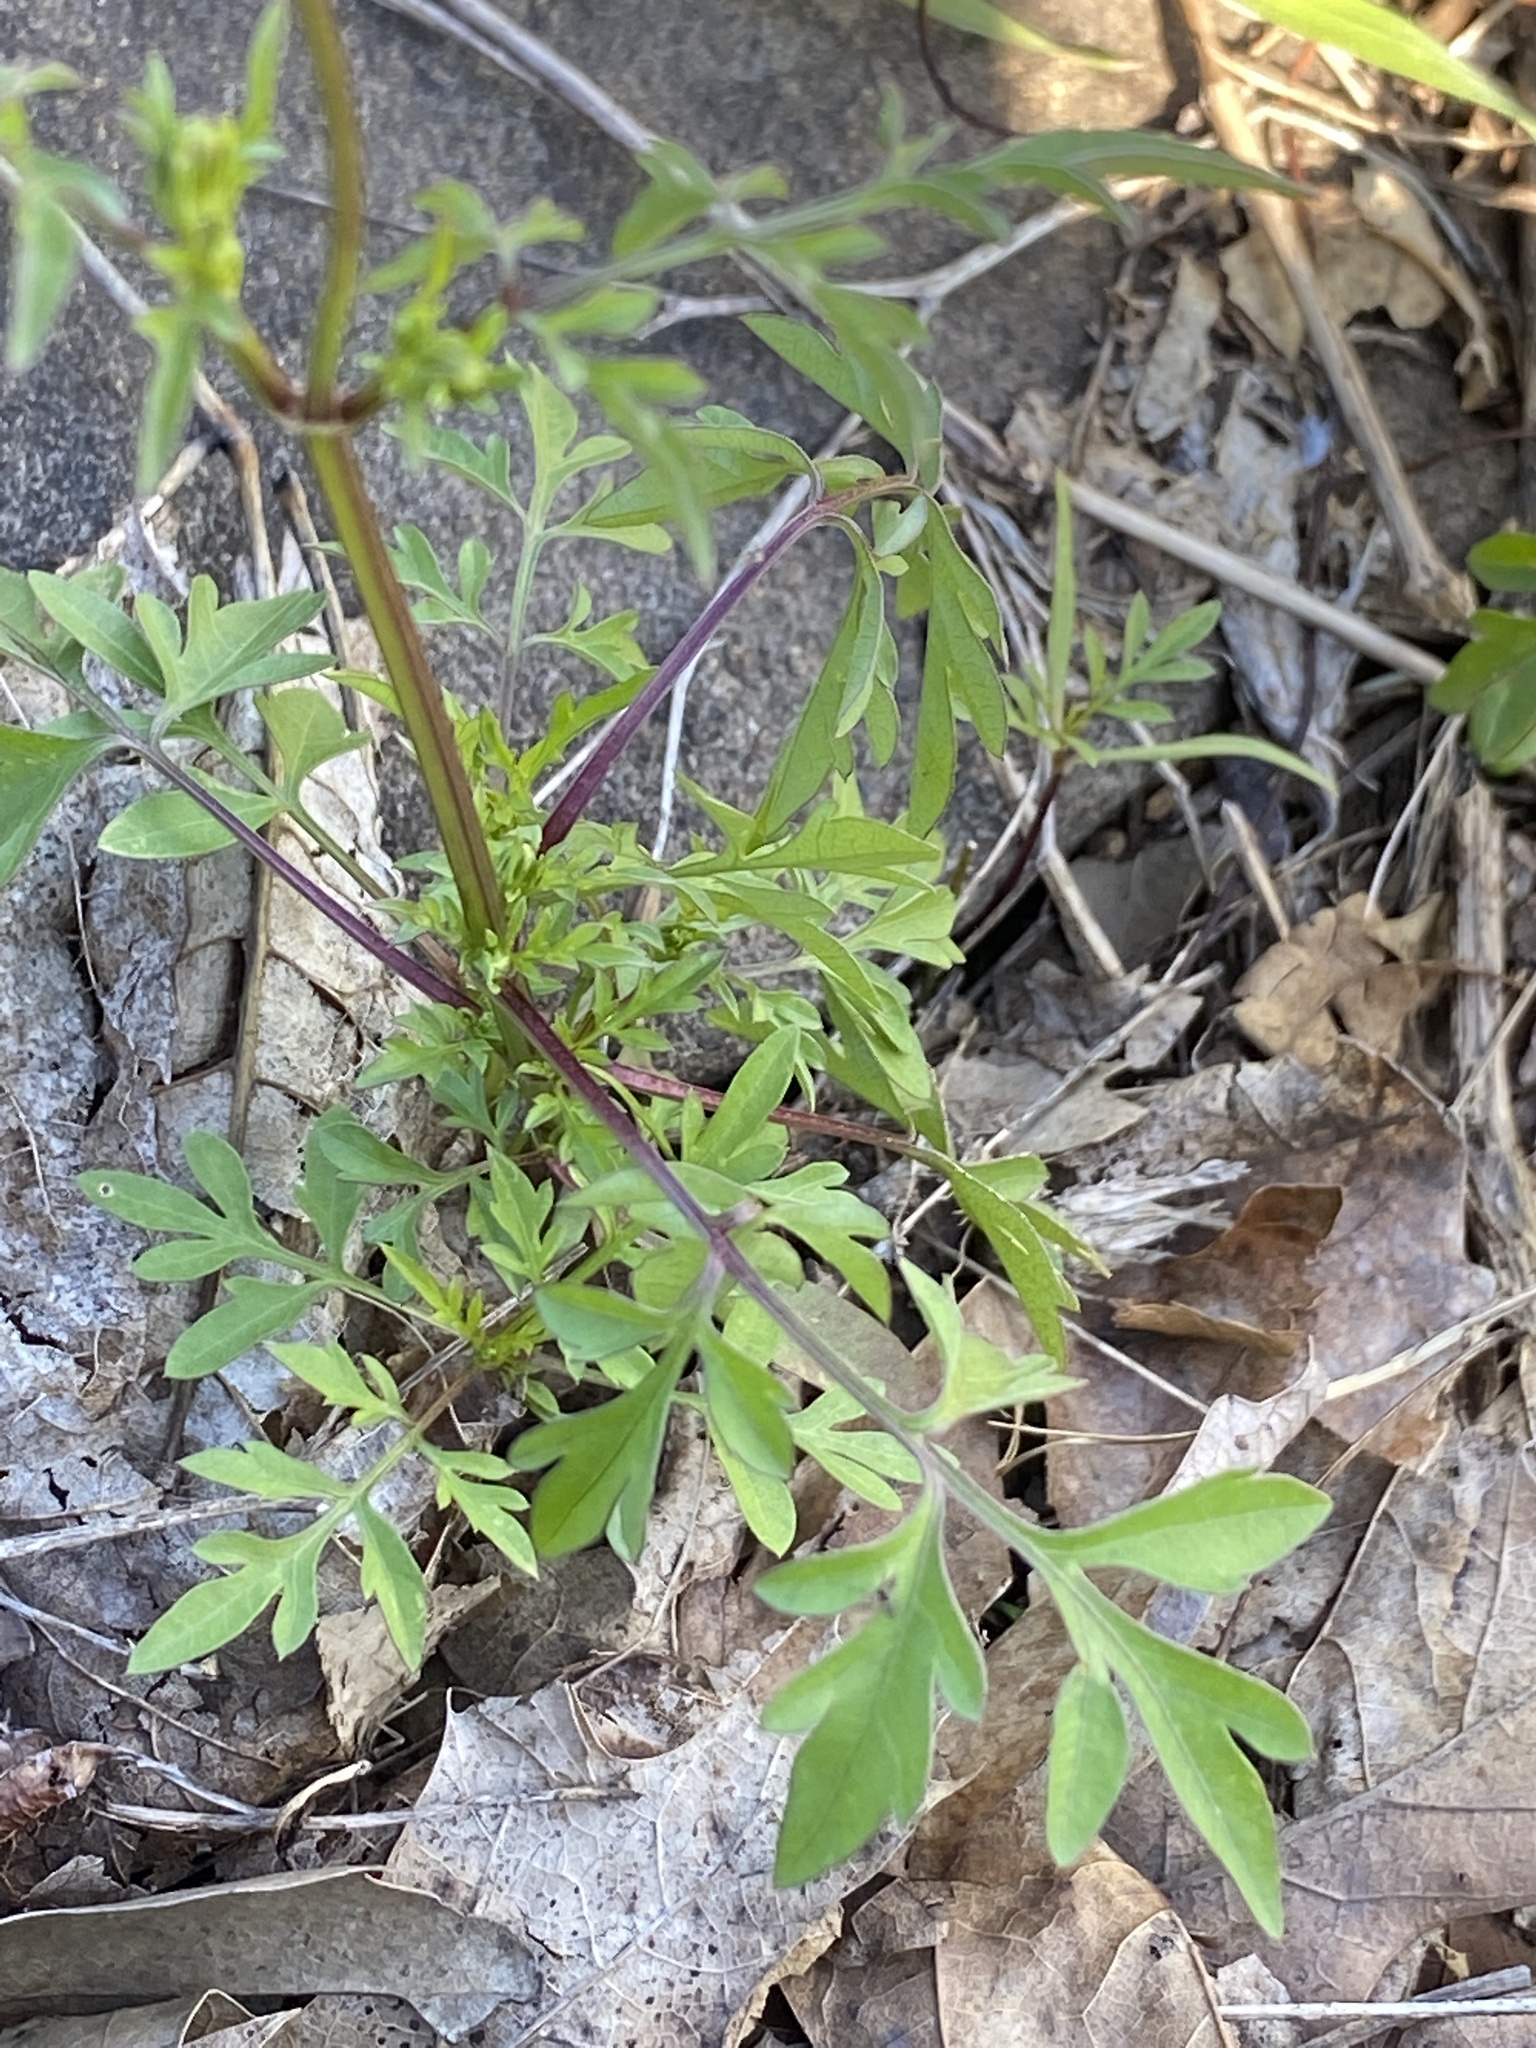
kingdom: Plantae
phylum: Tracheophyta
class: Magnoliopsida
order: Asterales
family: Asteraceae
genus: Bidens
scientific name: Bidens bipinnata
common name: Spanish-needles
